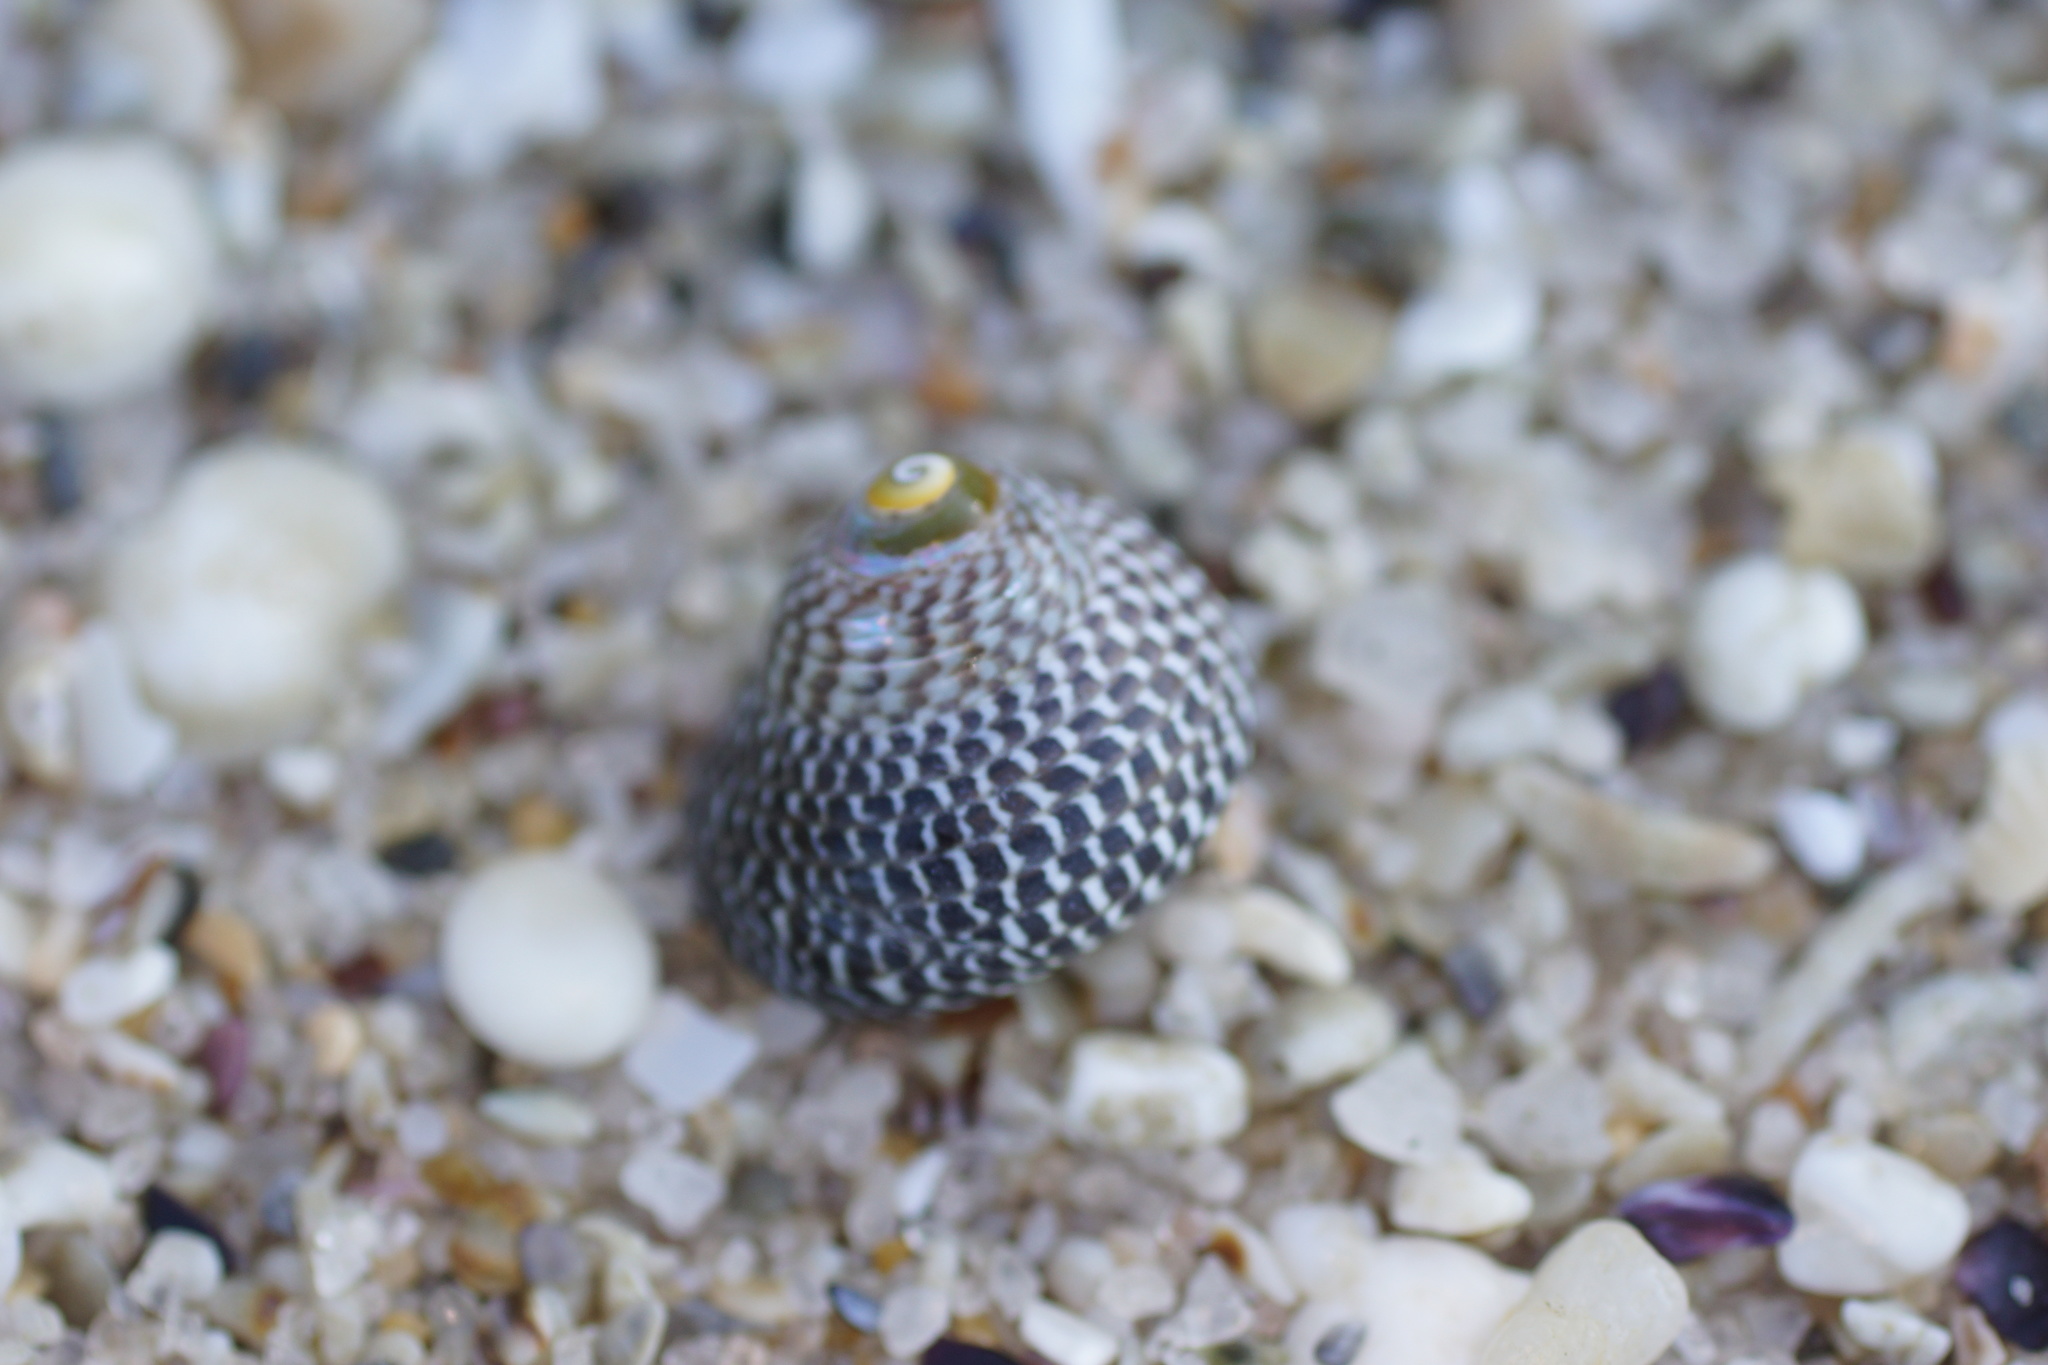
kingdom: Animalia
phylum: Mollusca
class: Gastropoda
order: Trochida
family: Trochidae
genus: Chlorodiloma
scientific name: Chlorodiloma adelaidae
